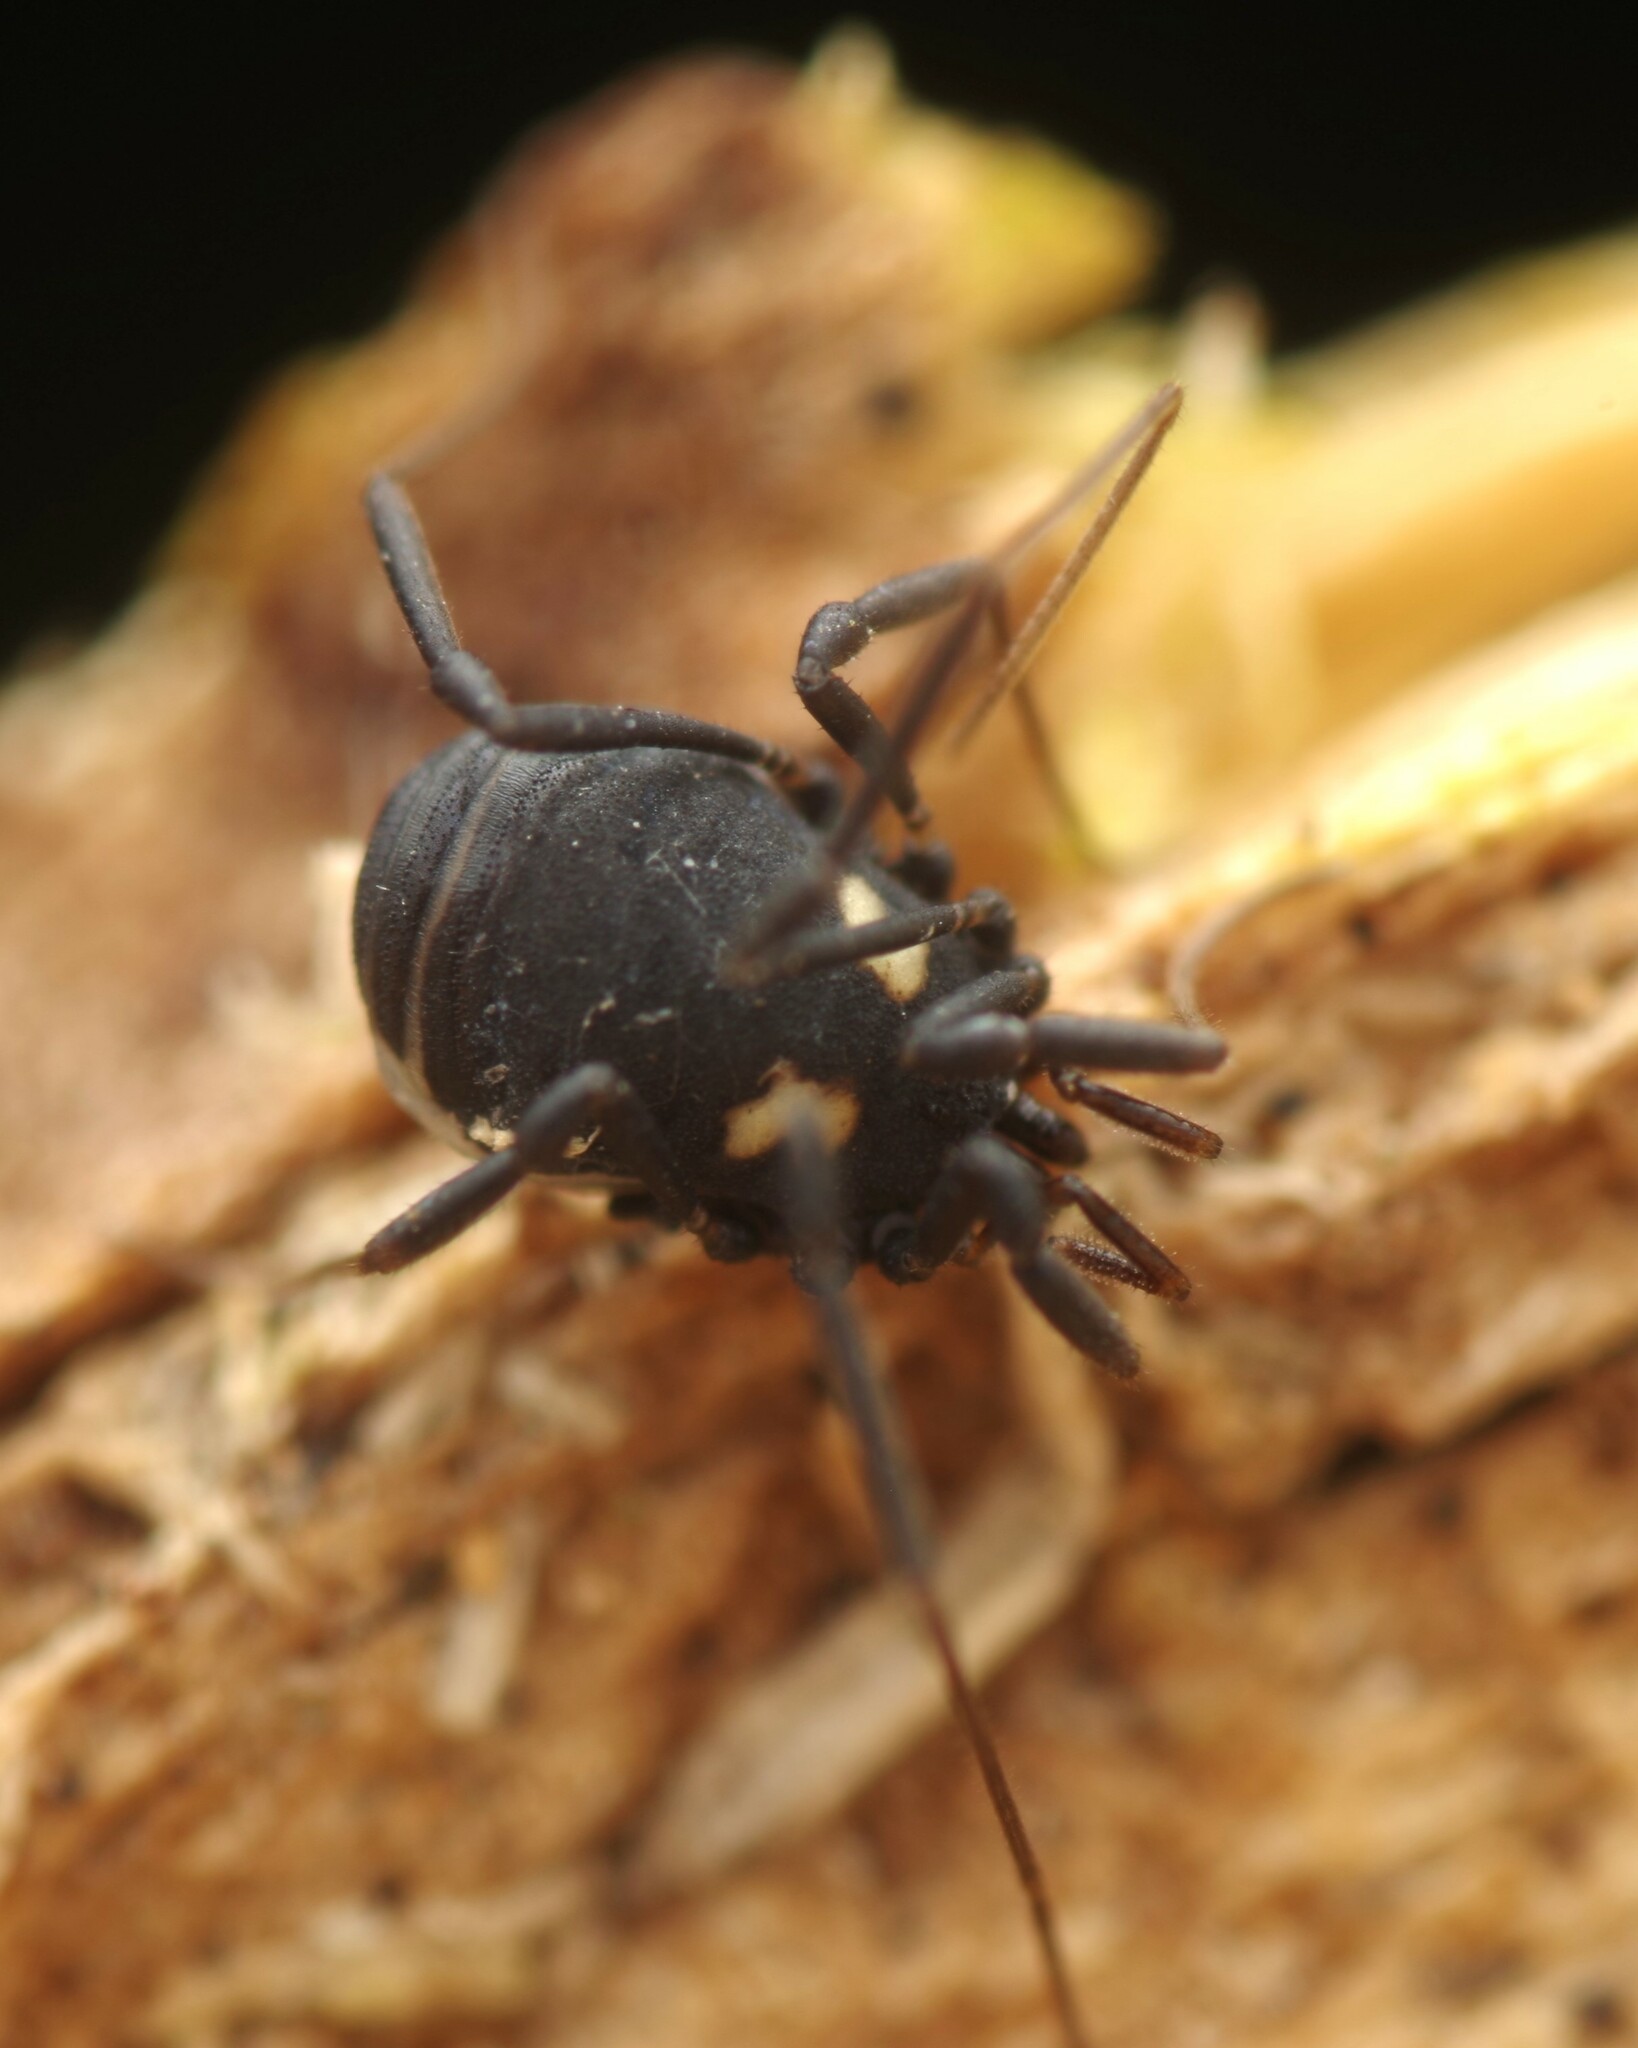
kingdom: Animalia
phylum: Arthropoda
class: Arachnida
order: Opiliones
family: Nemastomatidae
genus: Nemastoma
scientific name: Nemastoma bimaculatum
